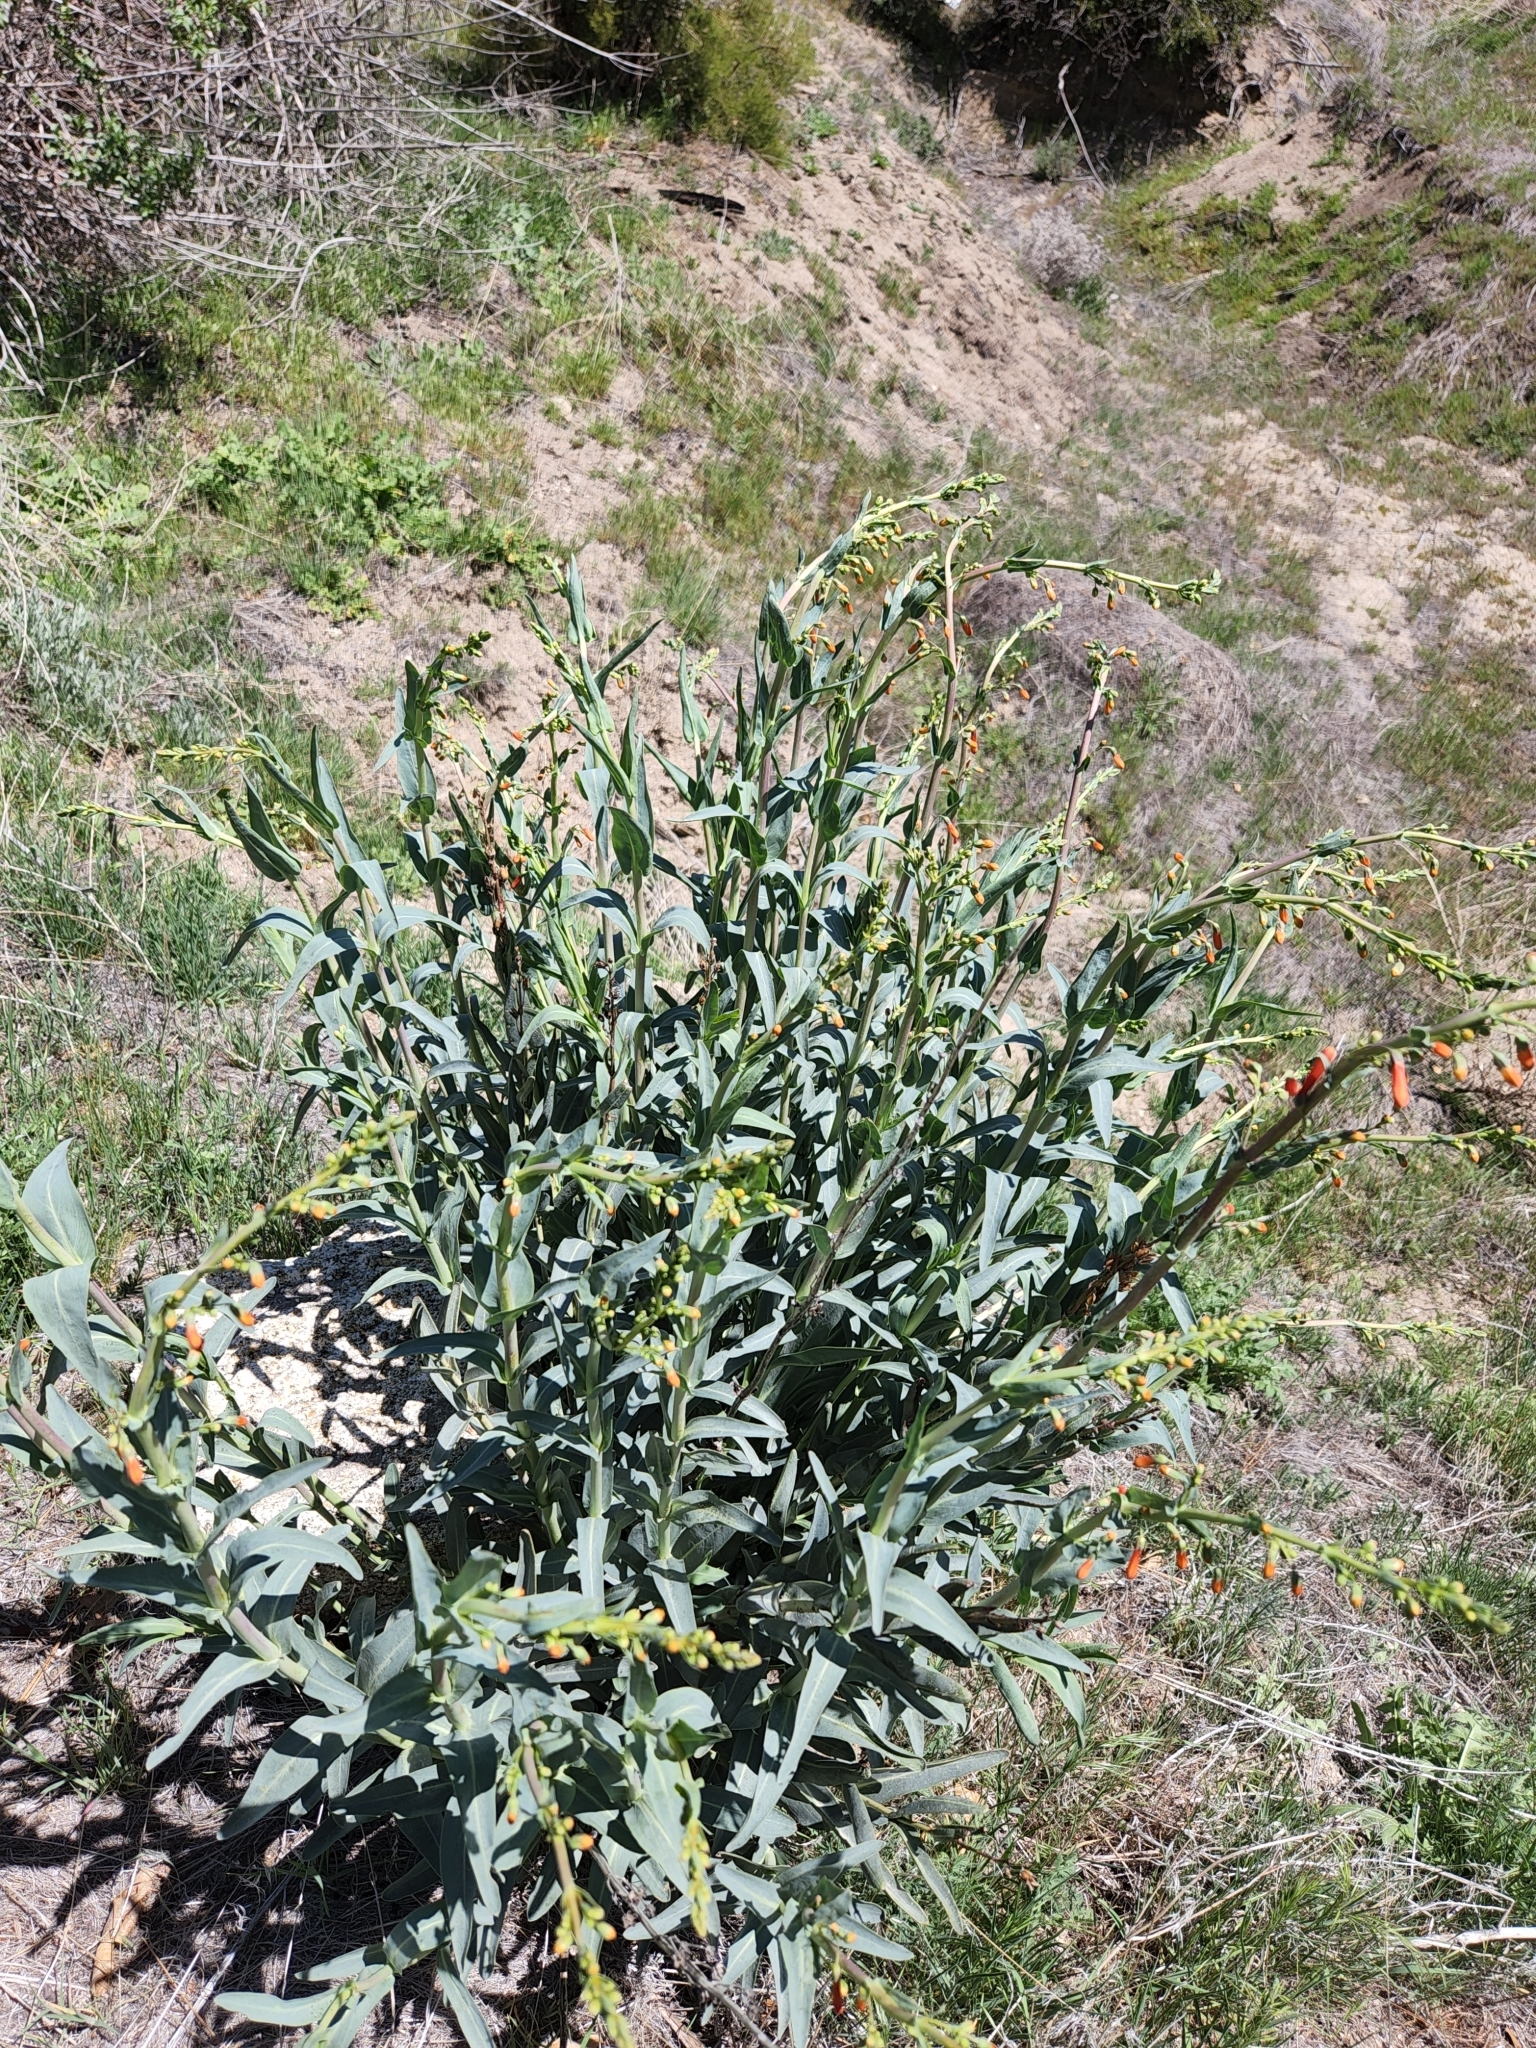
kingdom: Plantae
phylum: Tracheophyta
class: Magnoliopsida
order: Lamiales
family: Plantaginaceae
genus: Penstemon
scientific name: Penstemon centranthifolius
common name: Scarlet bugler
